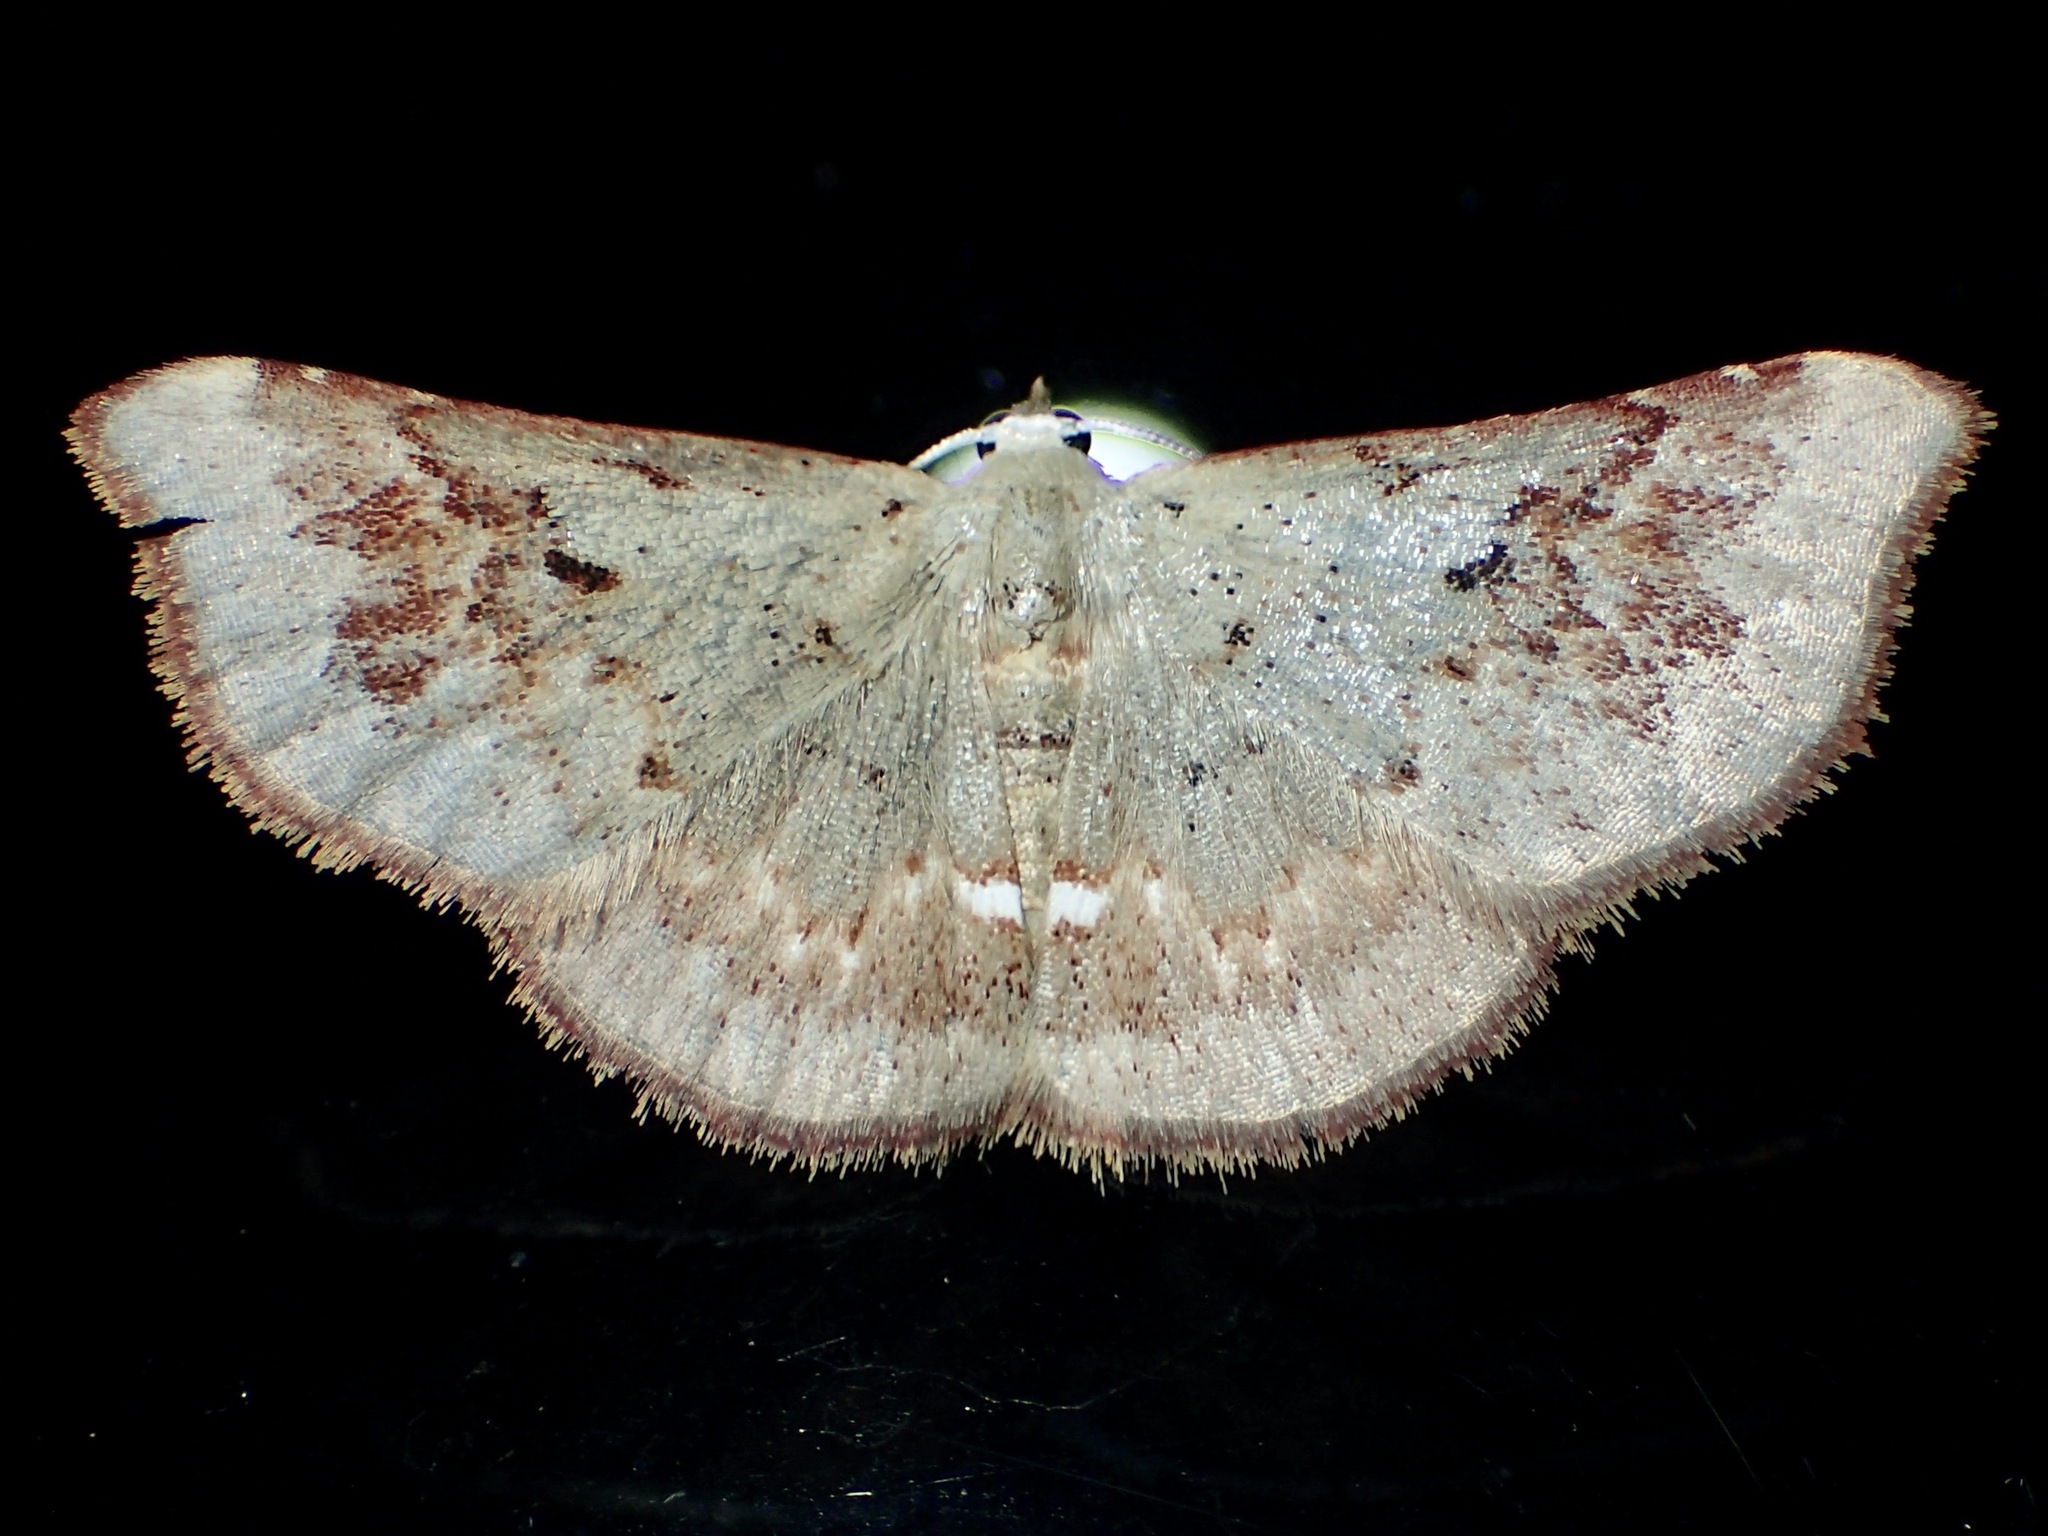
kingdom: Animalia
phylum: Arthropoda
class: Insecta
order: Lepidoptera
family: Noctuidae
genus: Enispa
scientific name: Enispa prolectus
